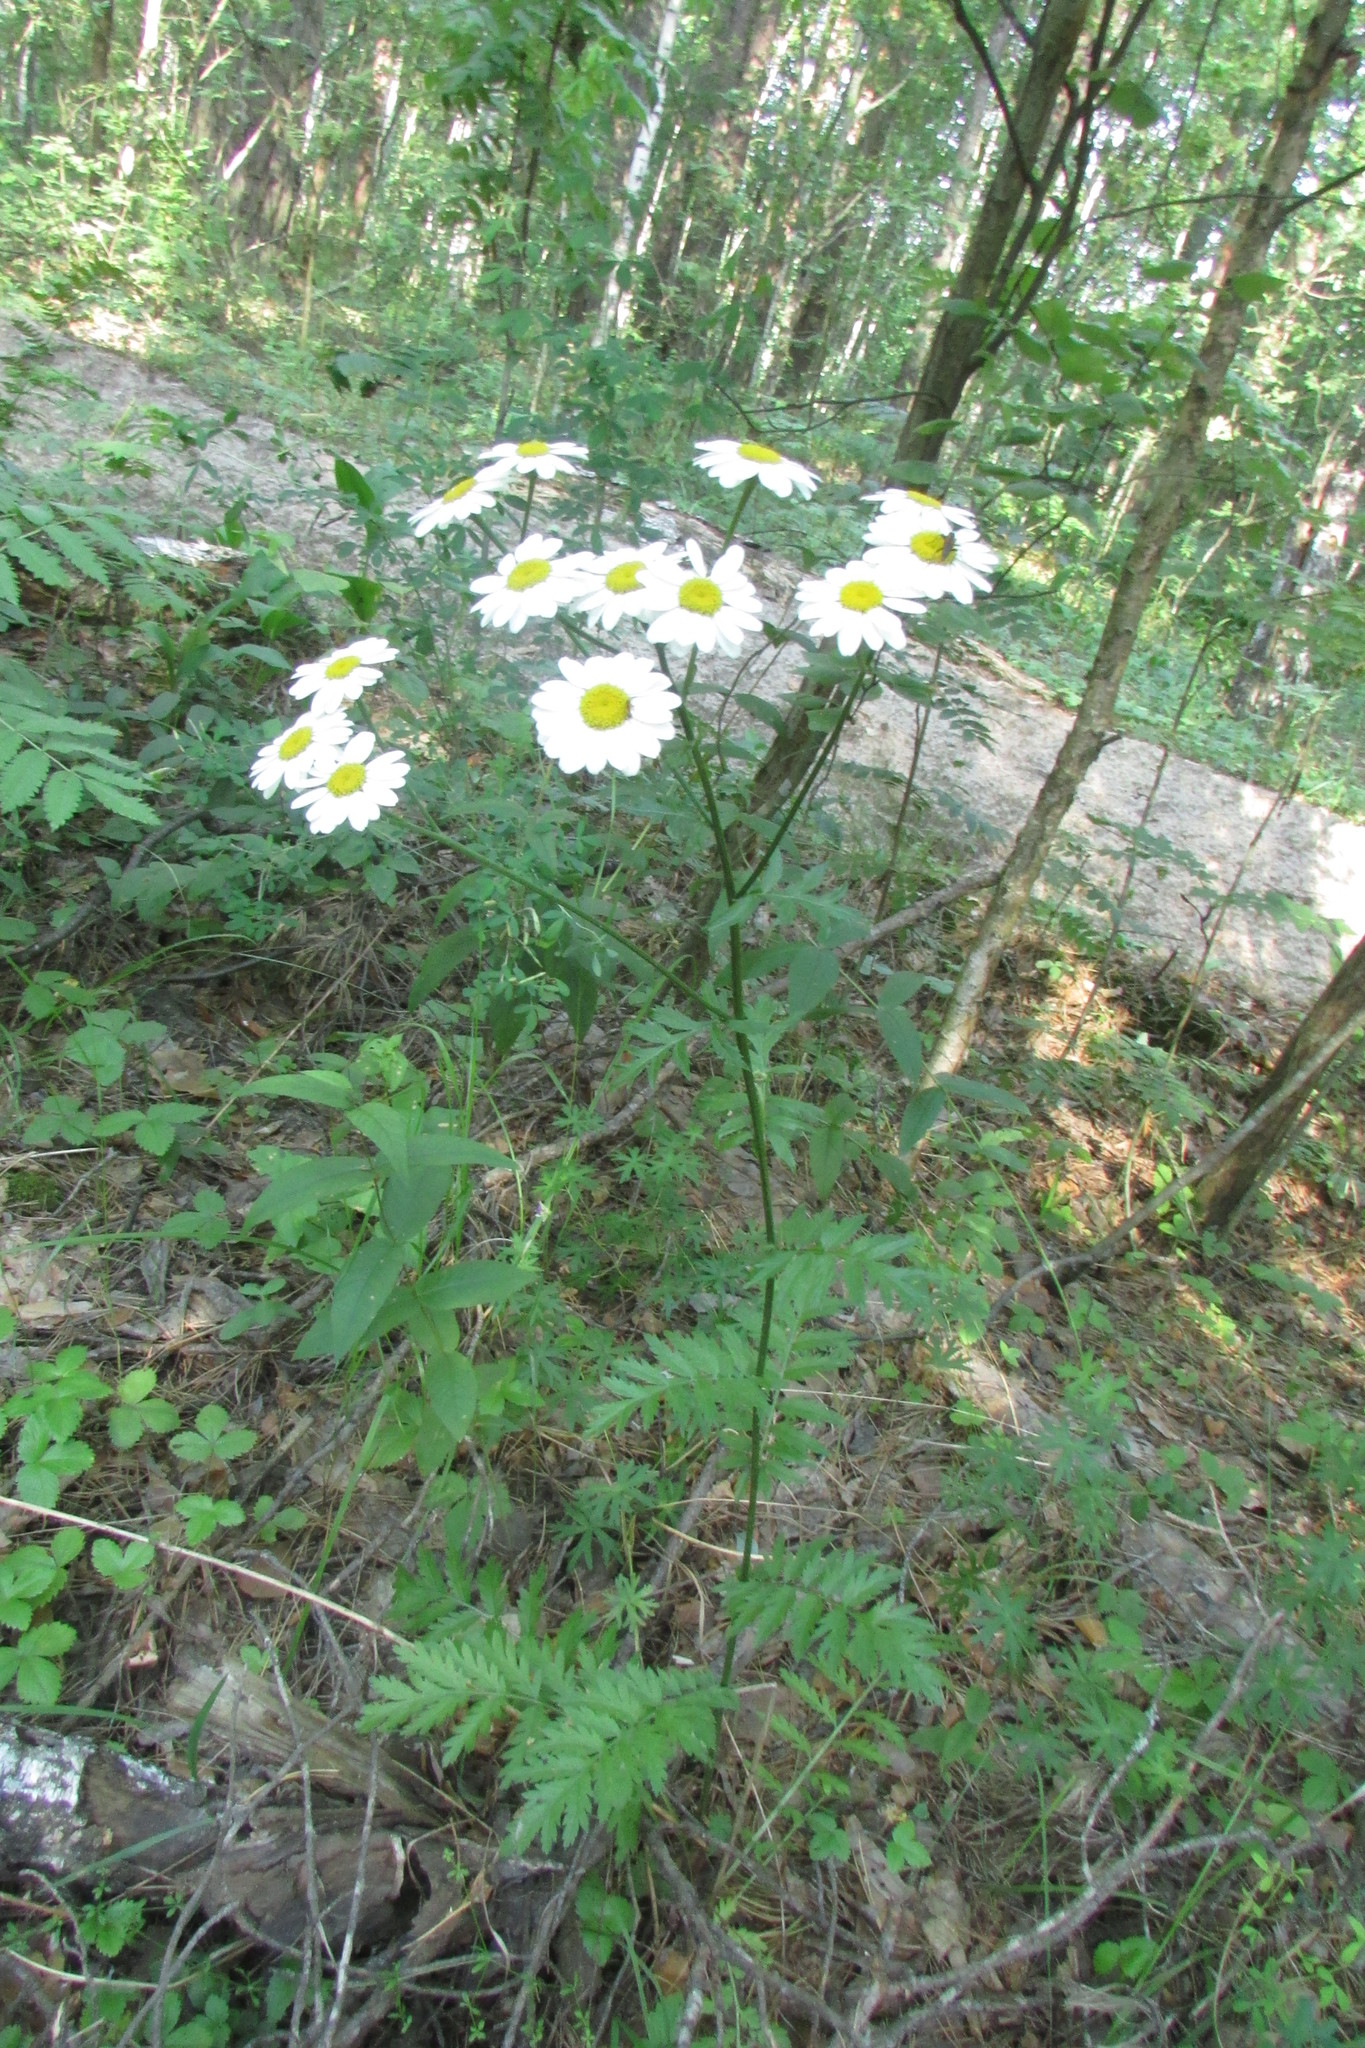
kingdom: Plantae
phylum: Tracheophyta
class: Magnoliopsida
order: Asterales
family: Asteraceae
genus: Tanacetum
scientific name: Tanacetum corymbosum
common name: Scentless feverfew
